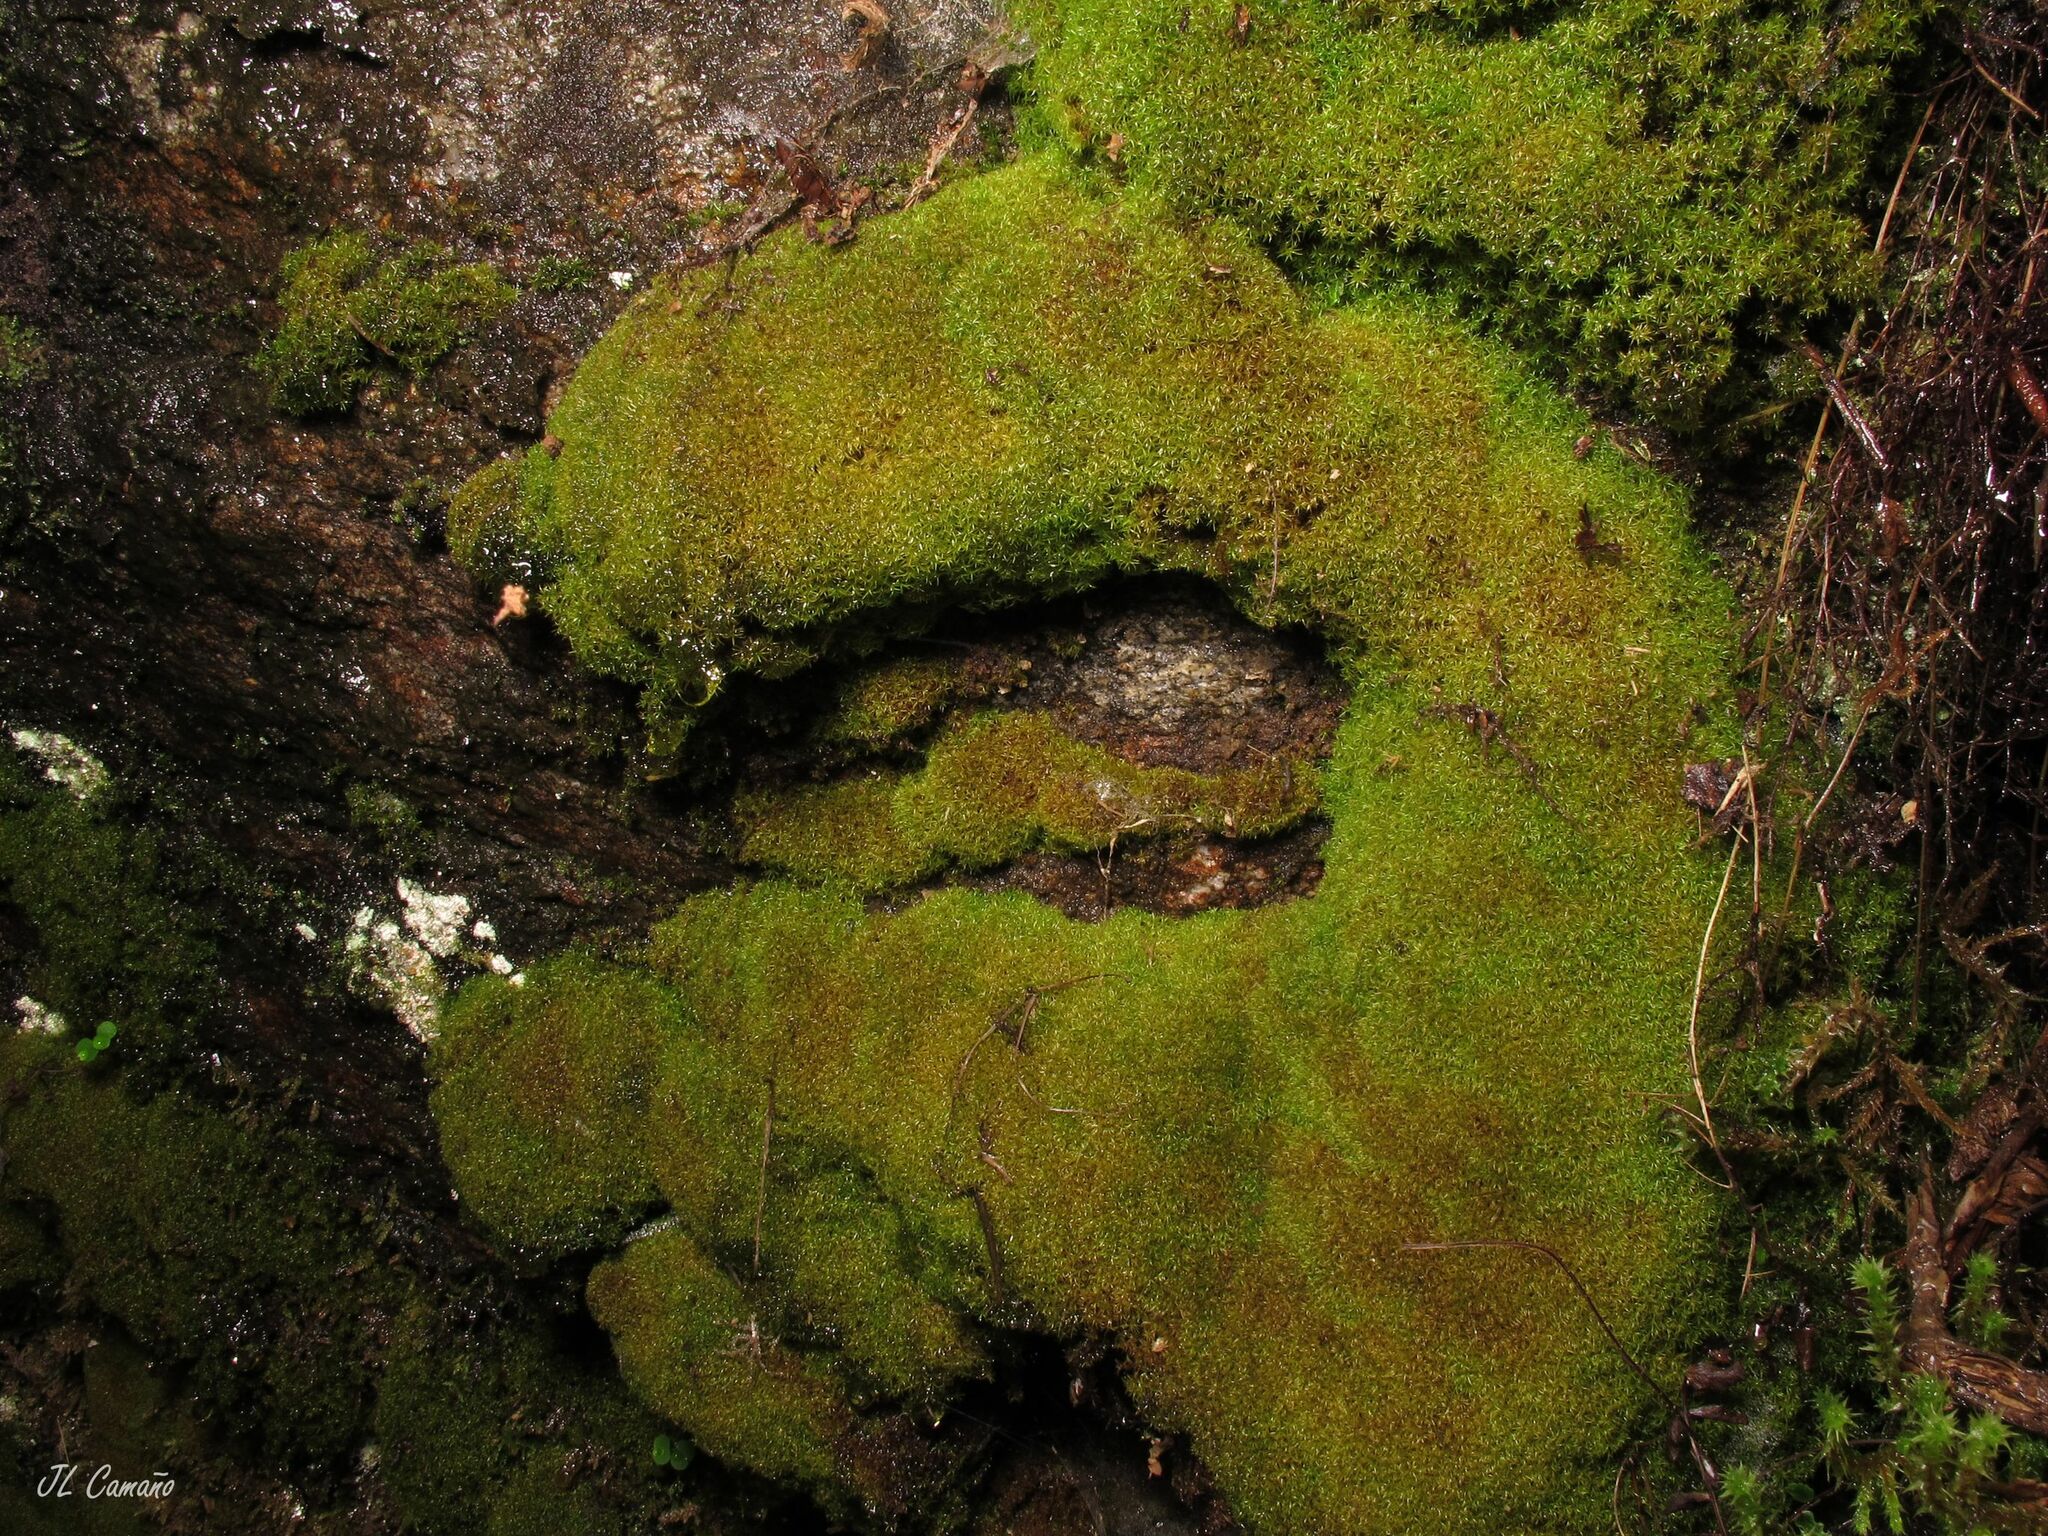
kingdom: Plantae
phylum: Bryophyta
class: Bryopsida
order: Dicranales
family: Amphidiaceae
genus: Amphidium
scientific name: Amphidium mougeotii
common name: Mougeot's yoke moss
